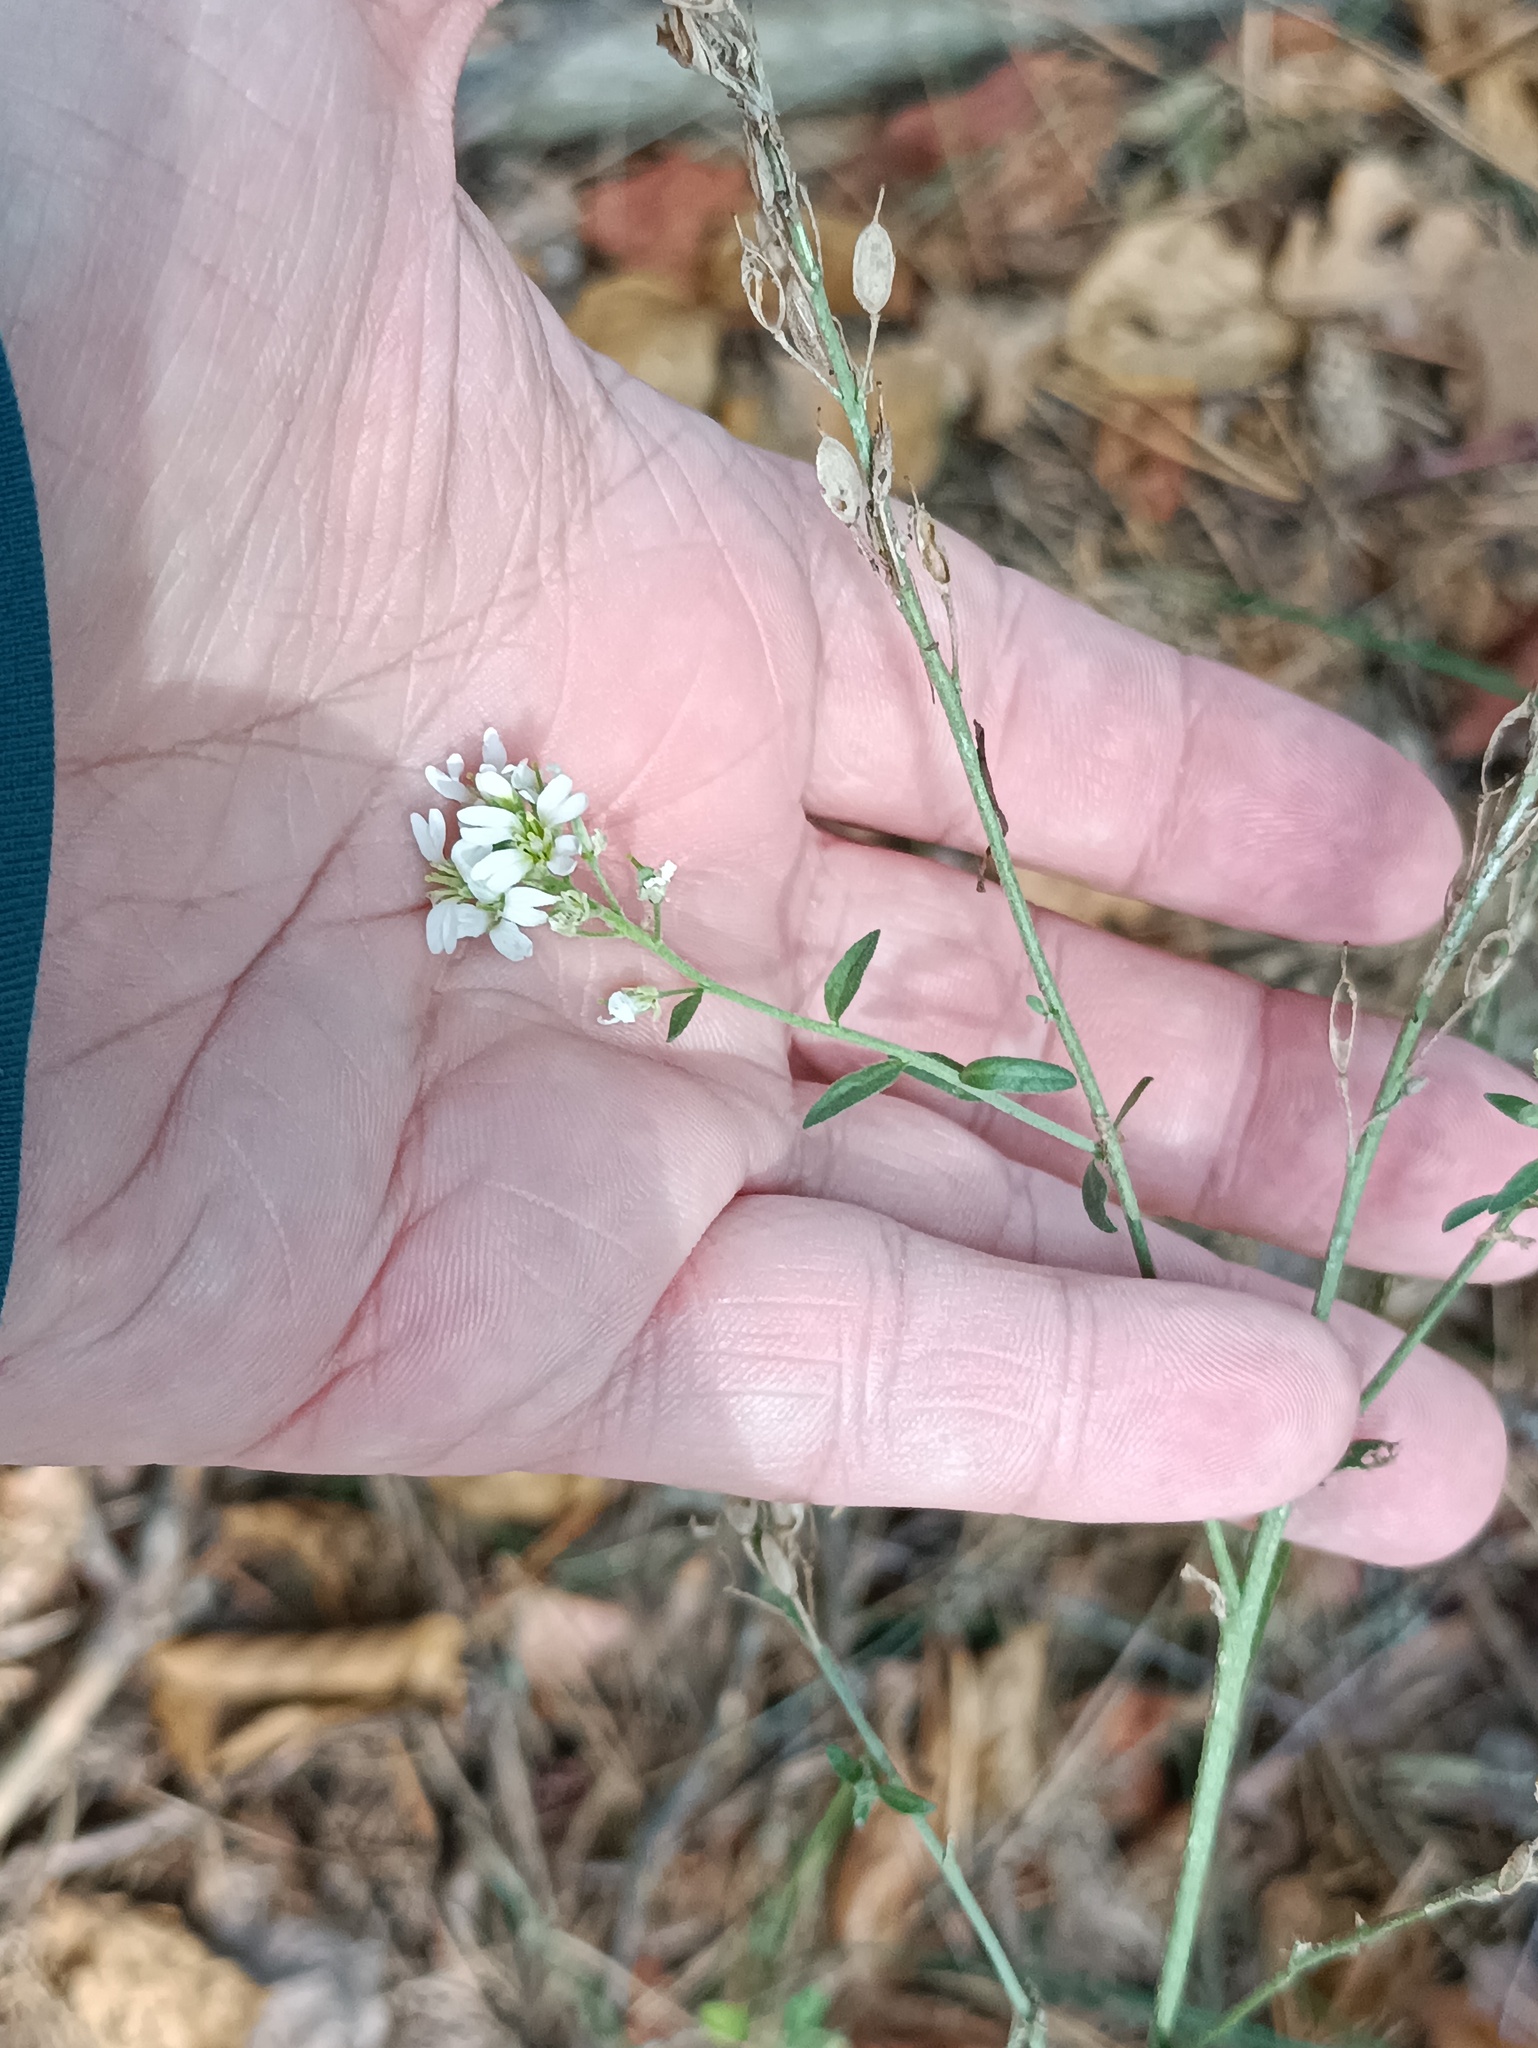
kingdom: Plantae
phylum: Tracheophyta
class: Magnoliopsida
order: Brassicales
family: Brassicaceae
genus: Berteroa
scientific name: Berteroa incana
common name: Hoary alison
